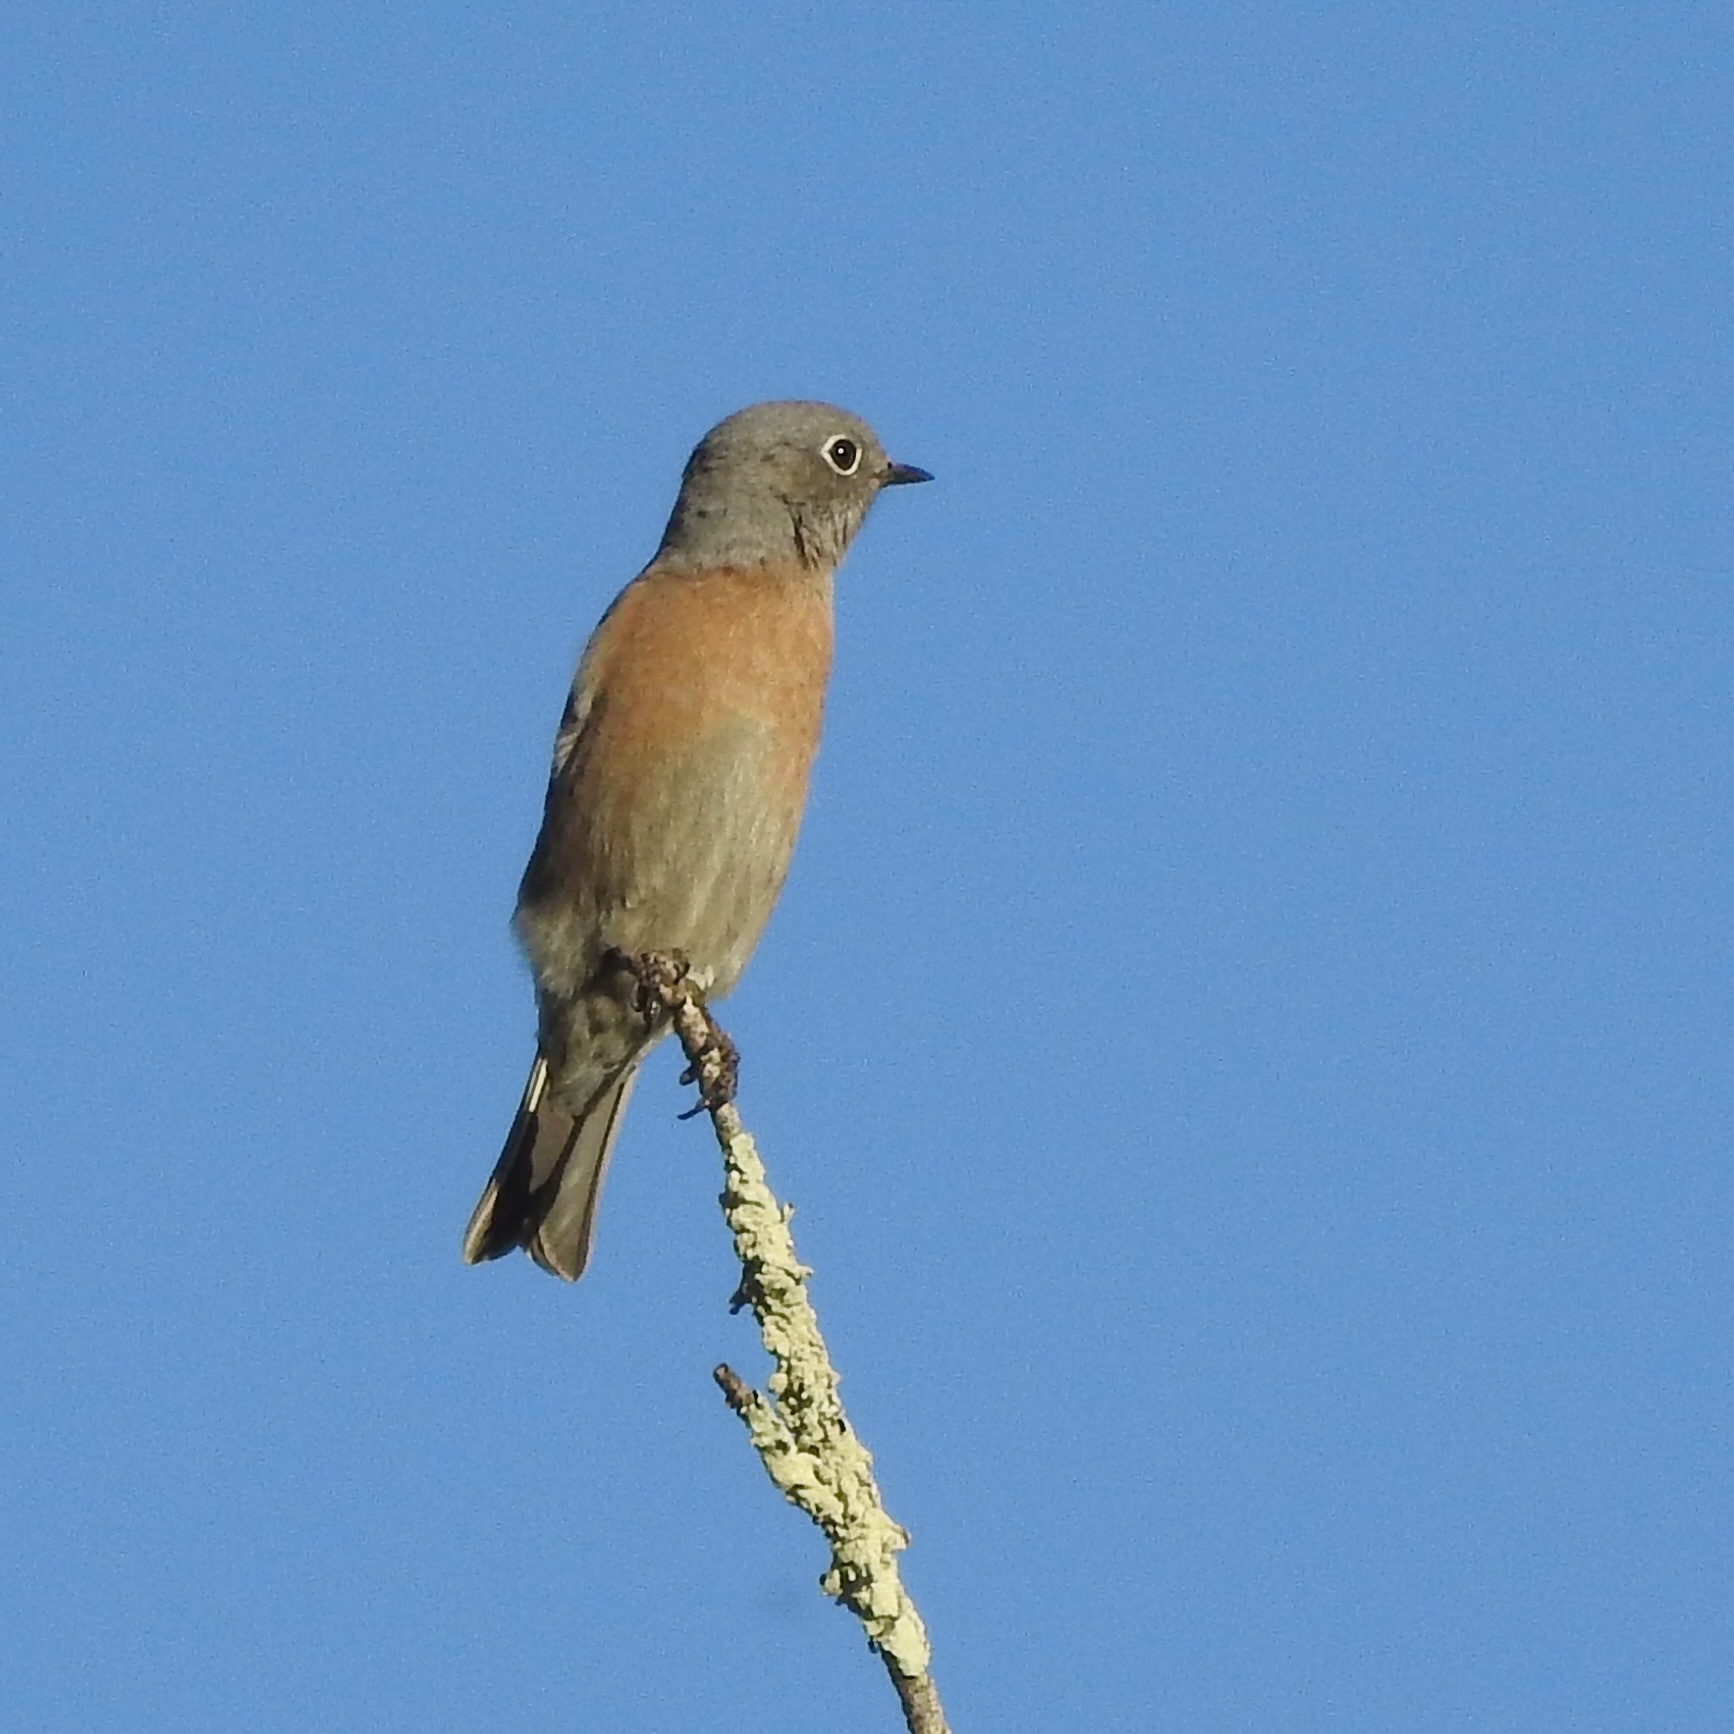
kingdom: Animalia
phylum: Chordata
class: Aves
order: Passeriformes
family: Turdidae
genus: Sialia
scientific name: Sialia mexicana
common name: Western bluebird
